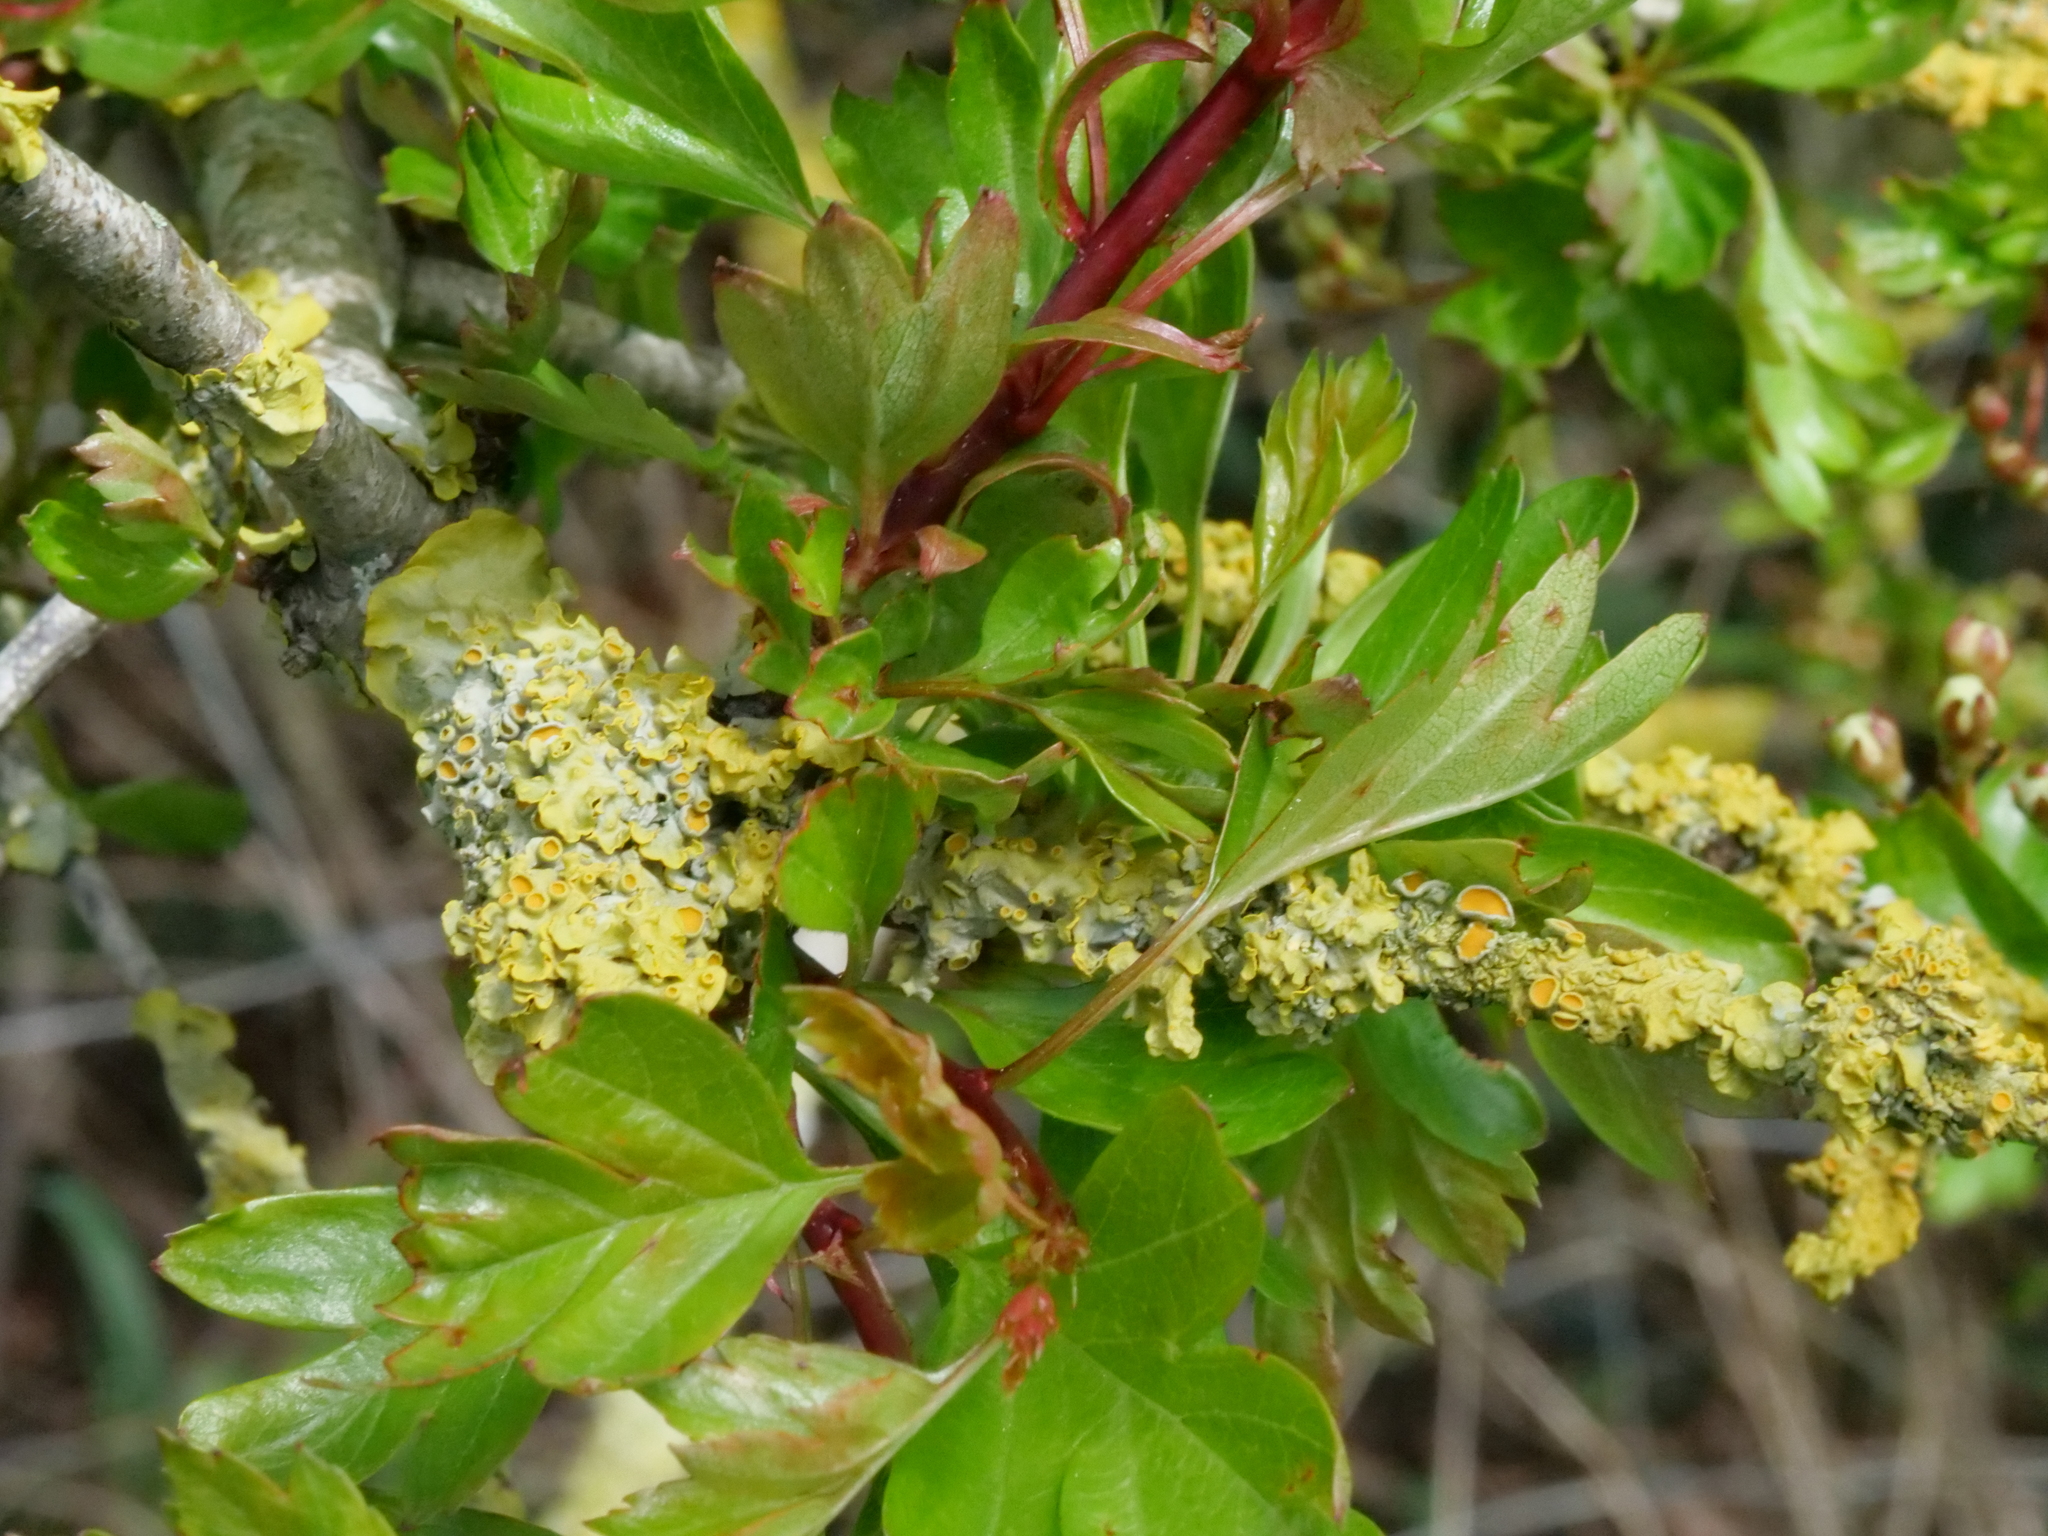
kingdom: Fungi
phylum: Ascomycota
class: Lecanoromycetes
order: Teloschistales
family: Teloschistaceae
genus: Xanthoria
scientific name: Xanthoria parietina
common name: Common orange lichen
